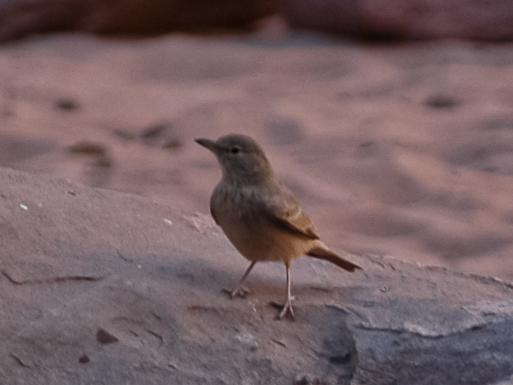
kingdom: Animalia
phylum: Chordata
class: Aves
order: Passeriformes
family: Alaudidae
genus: Ammomanes
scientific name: Ammomanes deserti
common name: Desert lark
